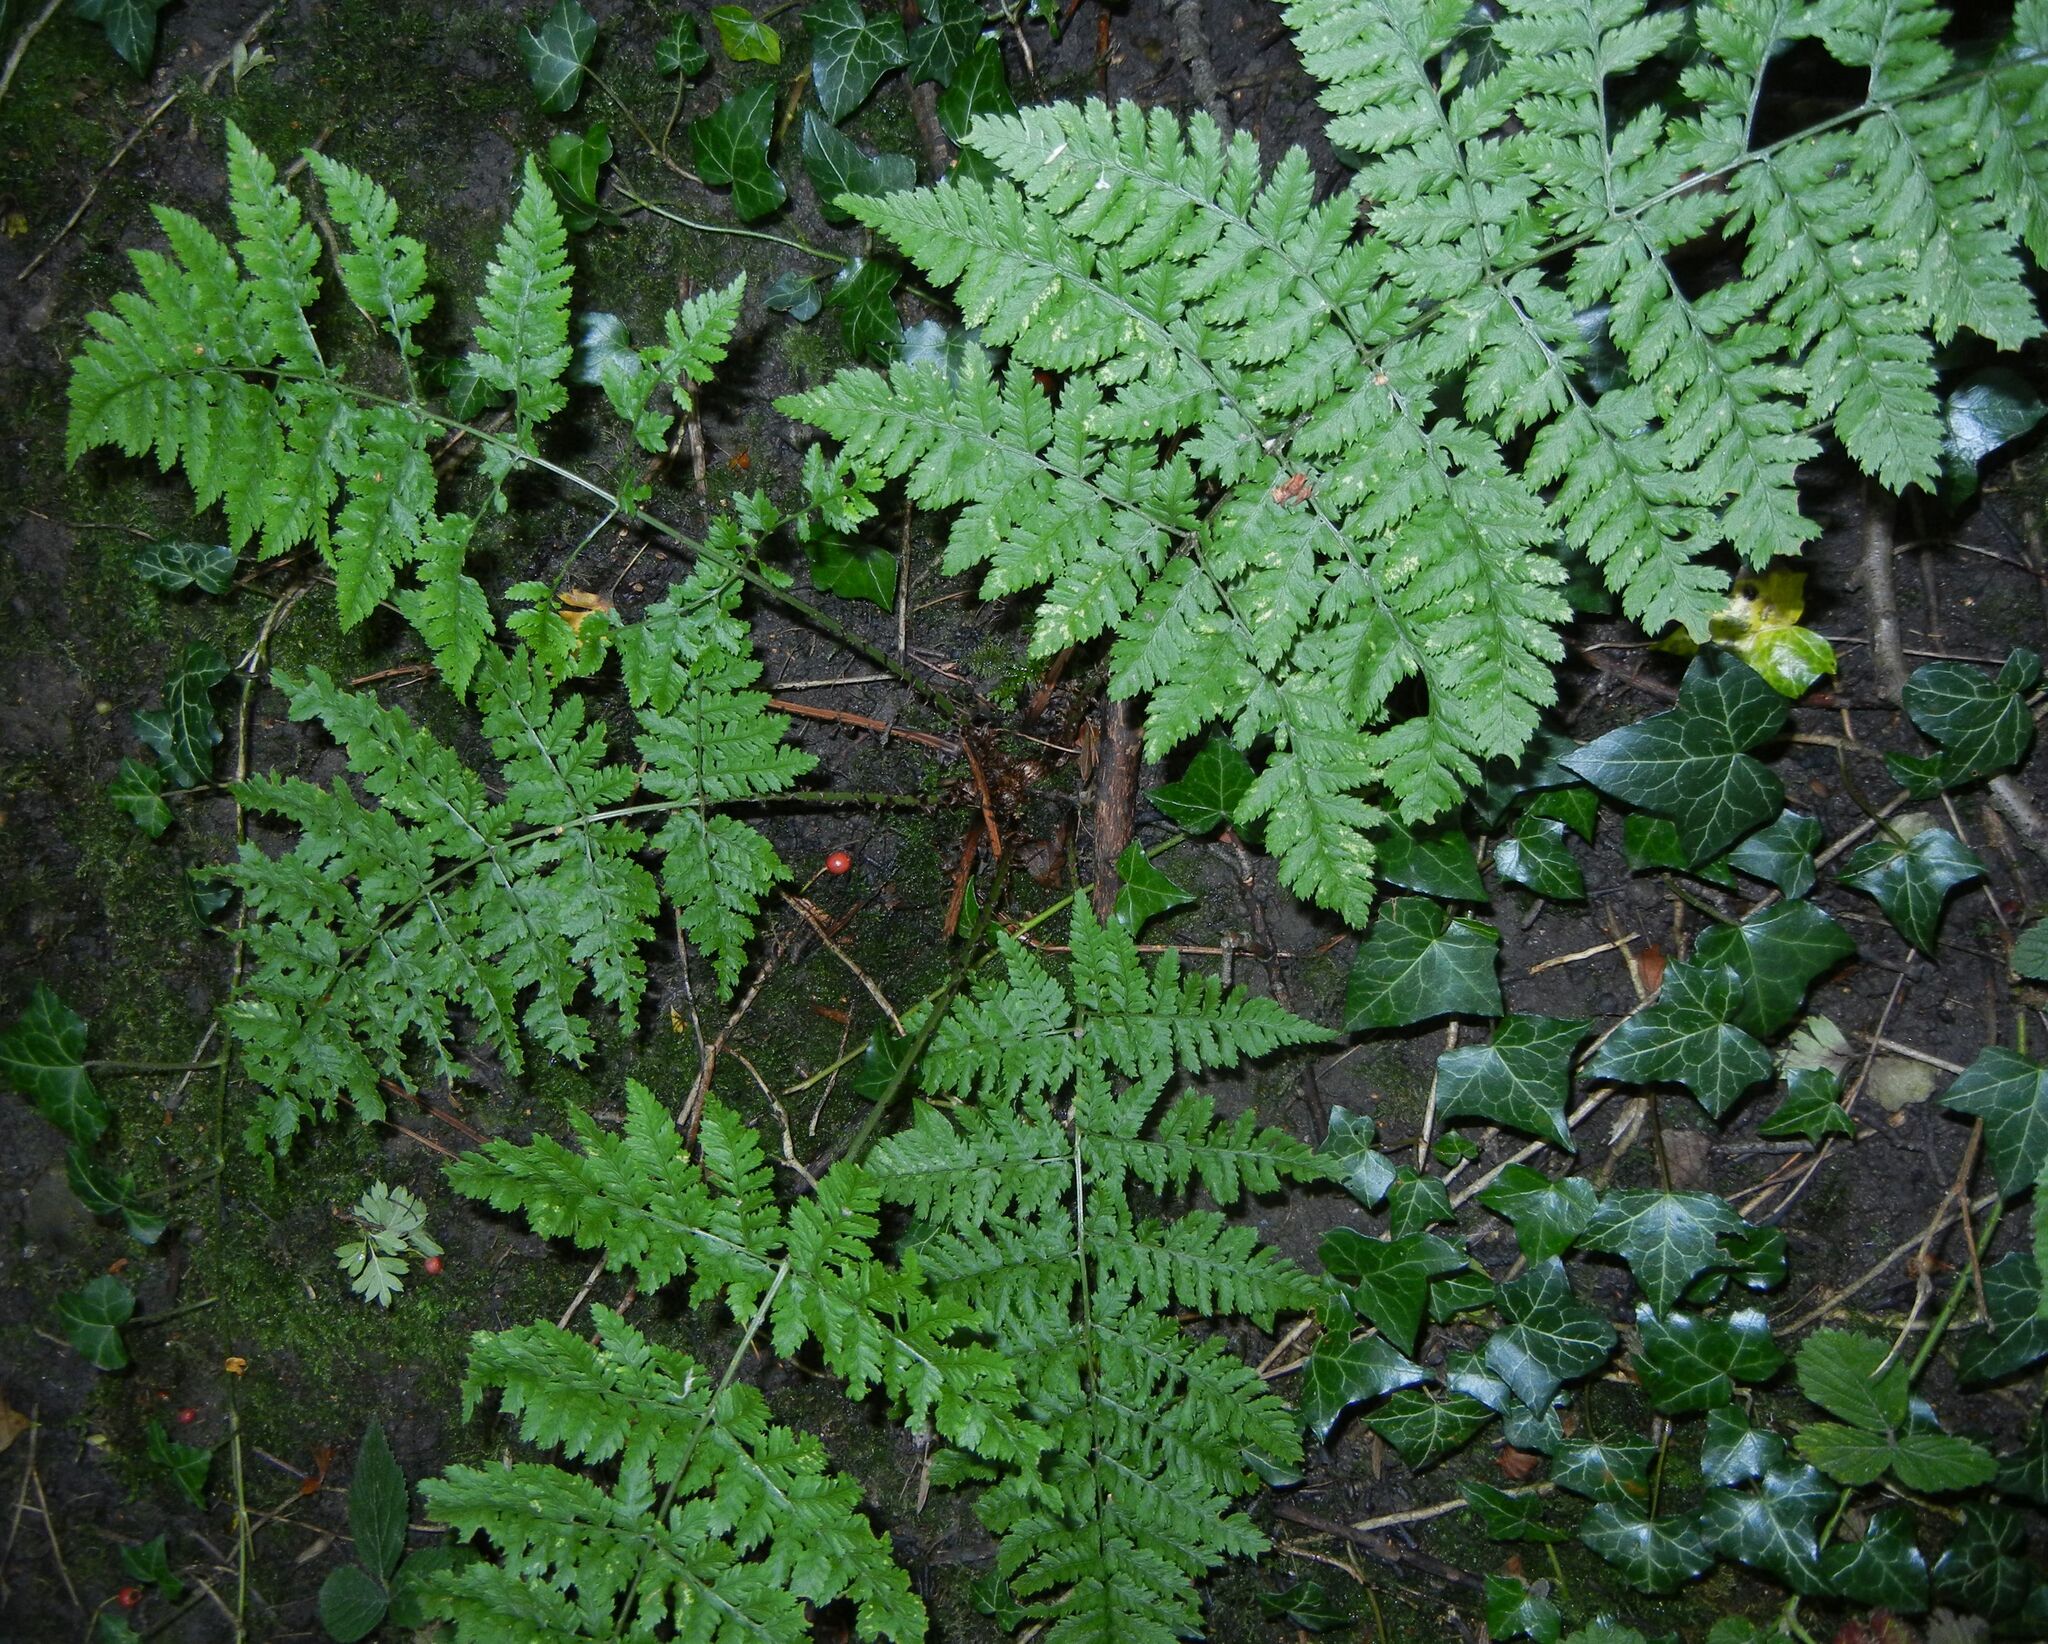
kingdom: Plantae
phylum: Tracheophyta
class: Polypodiopsida
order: Polypodiales
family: Dryopteridaceae
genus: Dryopteris
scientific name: Dryopteris dilatata
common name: Broad buckler-fern
